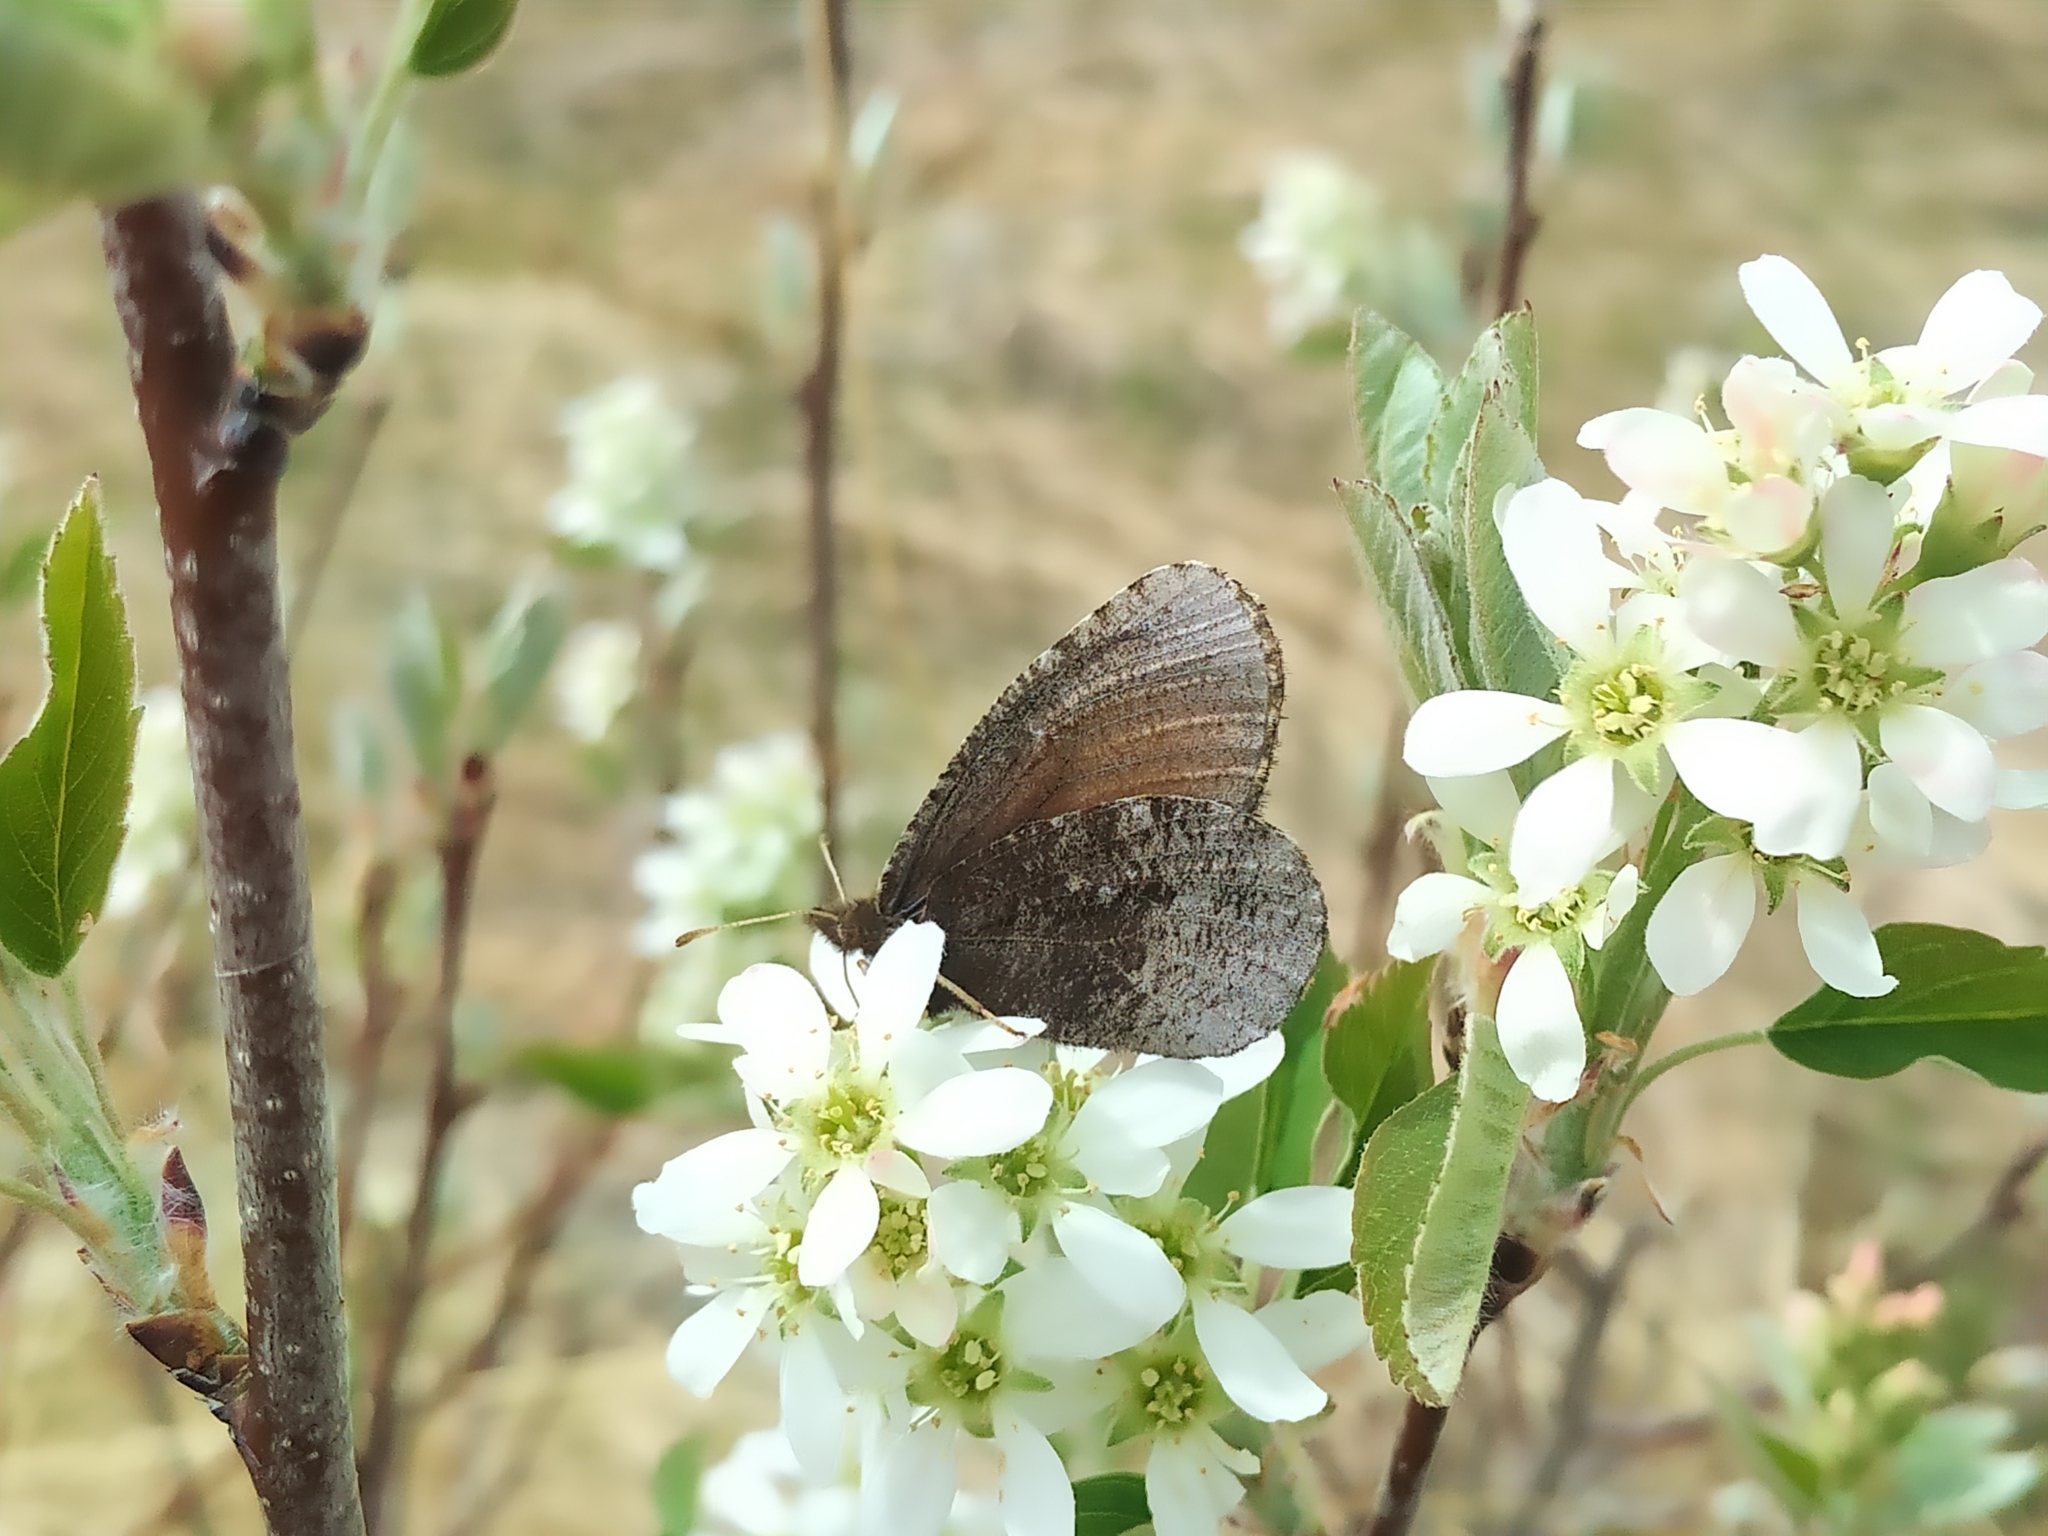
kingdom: Animalia
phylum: Arthropoda
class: Insecta
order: Lepidoptera
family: Nymphalidae
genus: Erebia
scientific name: Erebia discoidalis
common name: Red-disked alpine
